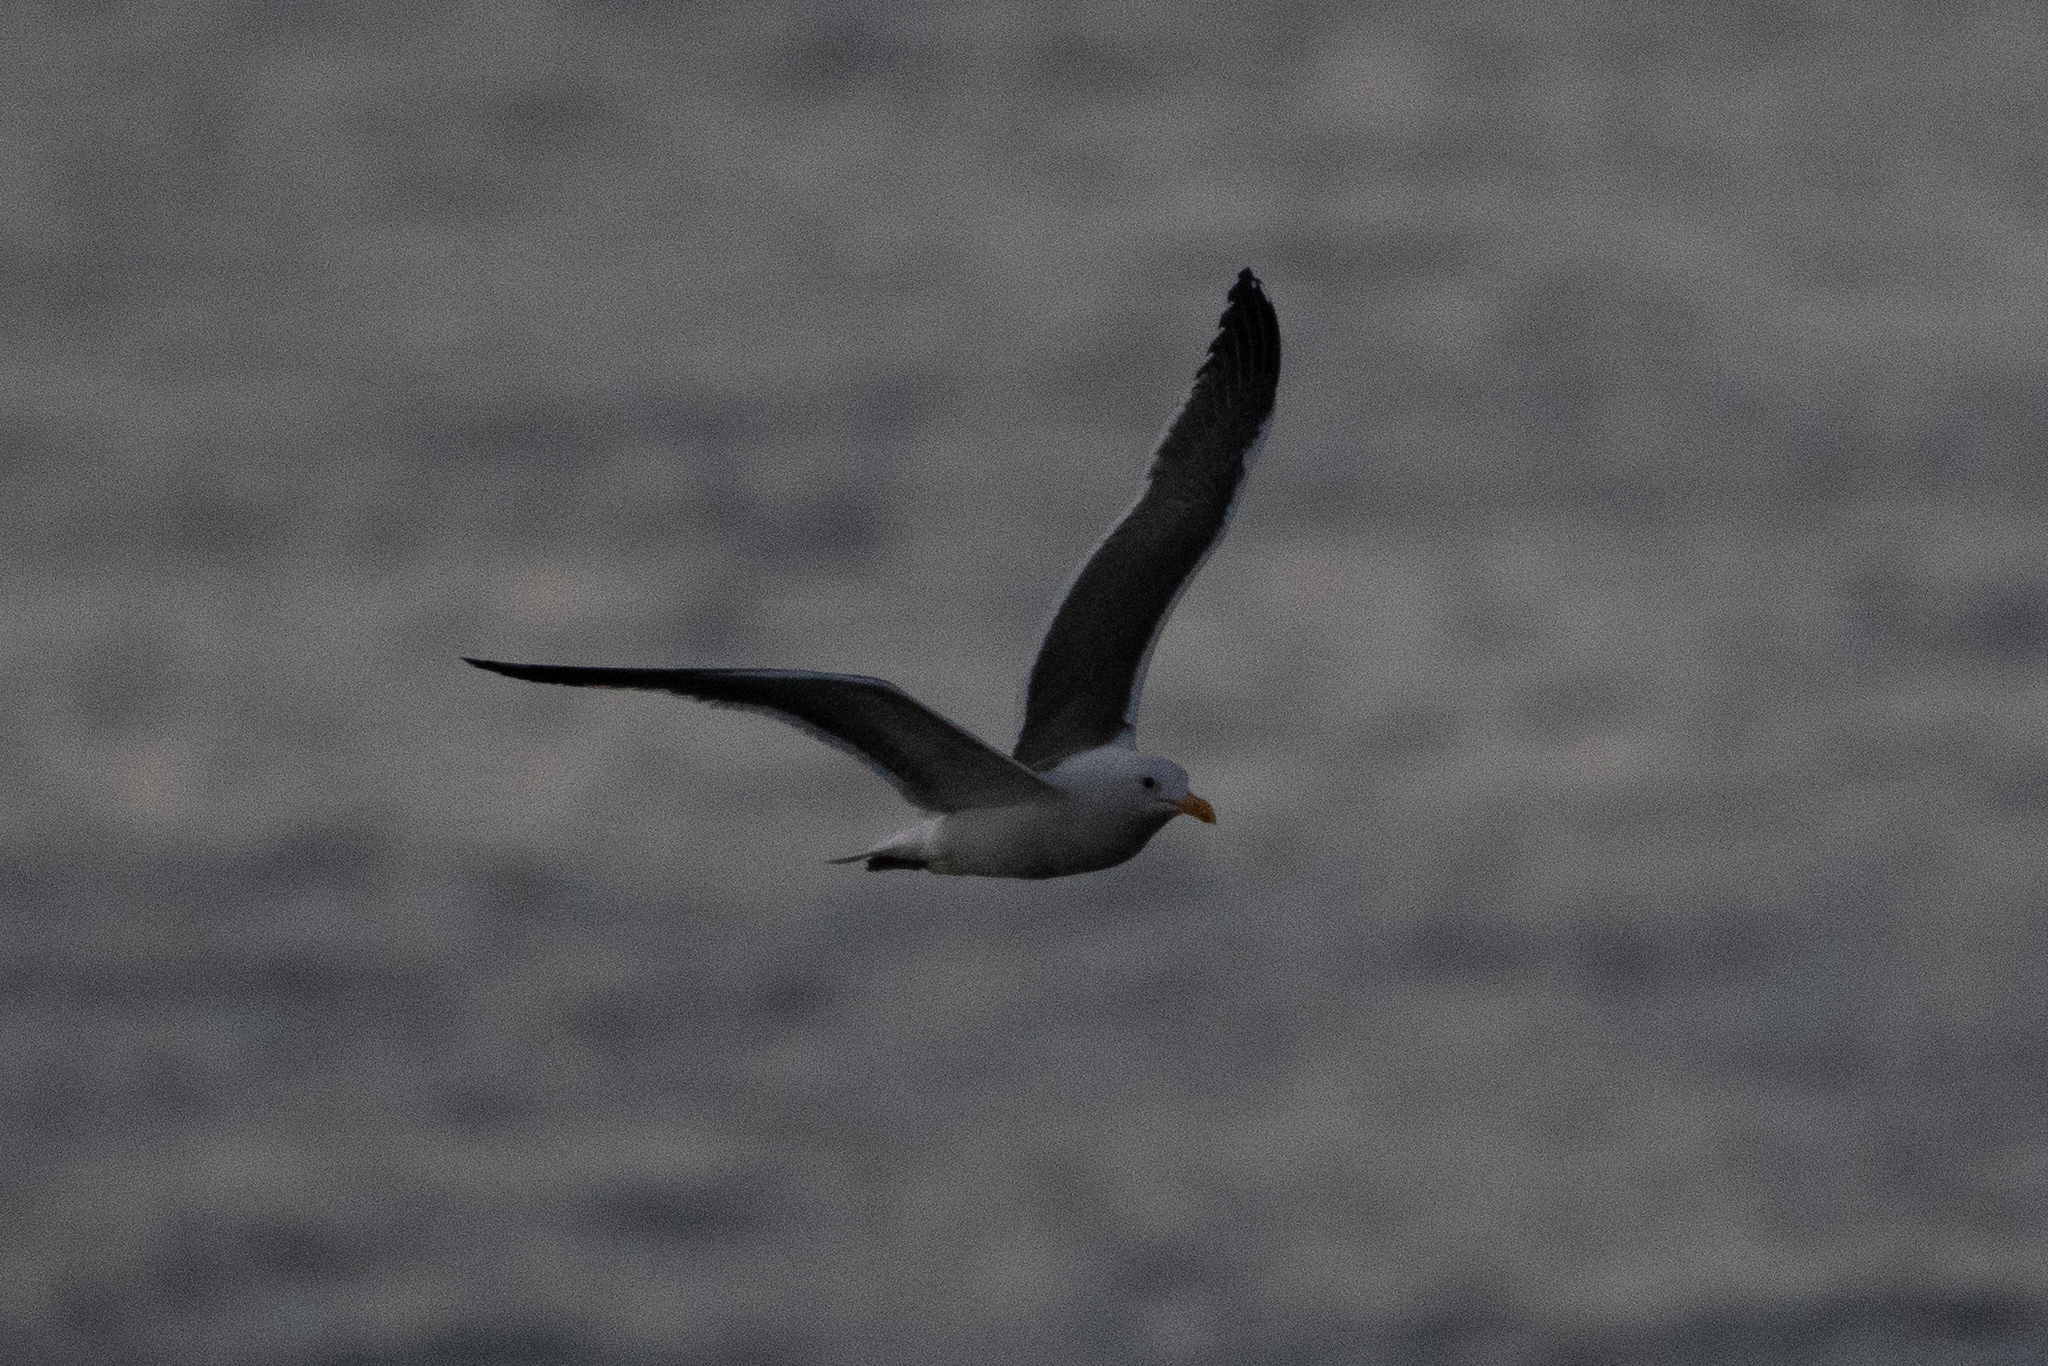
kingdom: Animalia
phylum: Chordata
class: Aves
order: Charadriiformes
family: Laridae
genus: Larus
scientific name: Larus occidentalis
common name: Western gull
